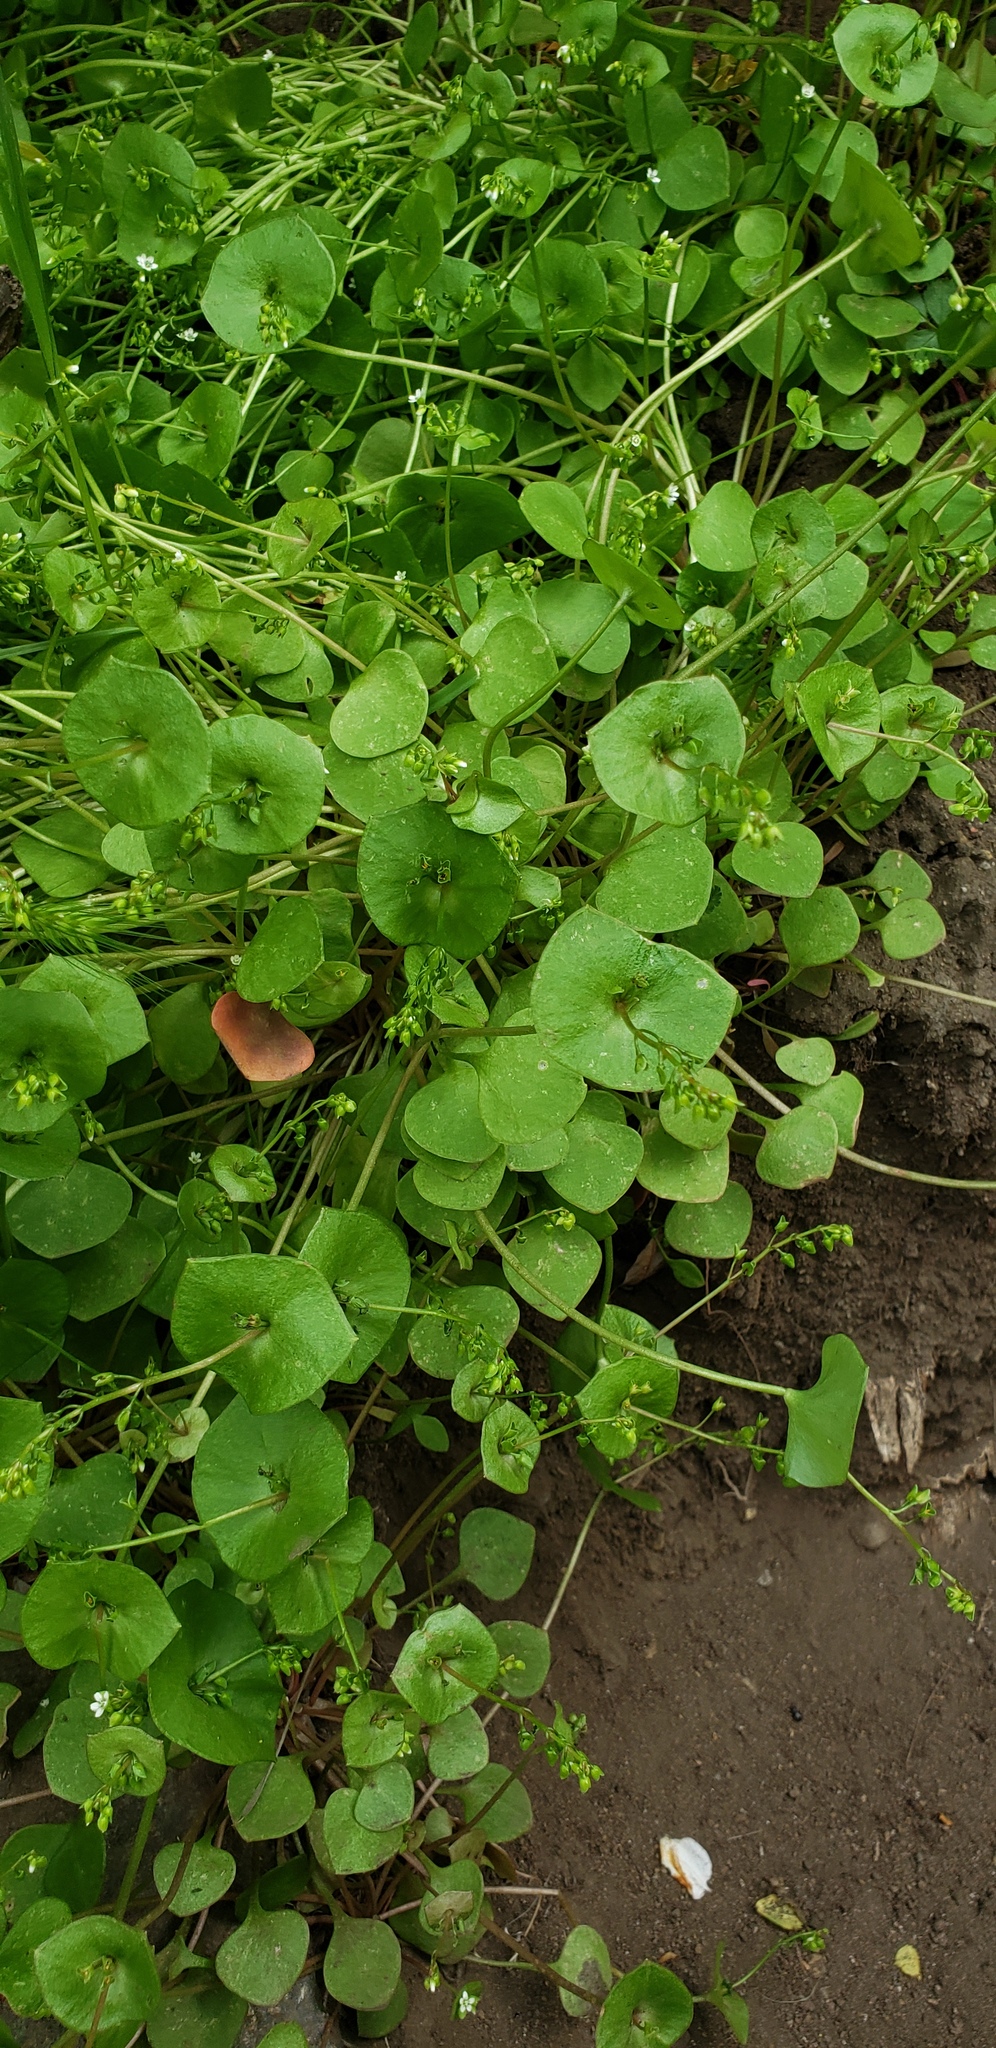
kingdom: Plantae
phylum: Tracheophyta
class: Magnoliopsida
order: Caryophyllales
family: Montiaceae
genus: Claytonia
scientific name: Claytonia perfoliata
